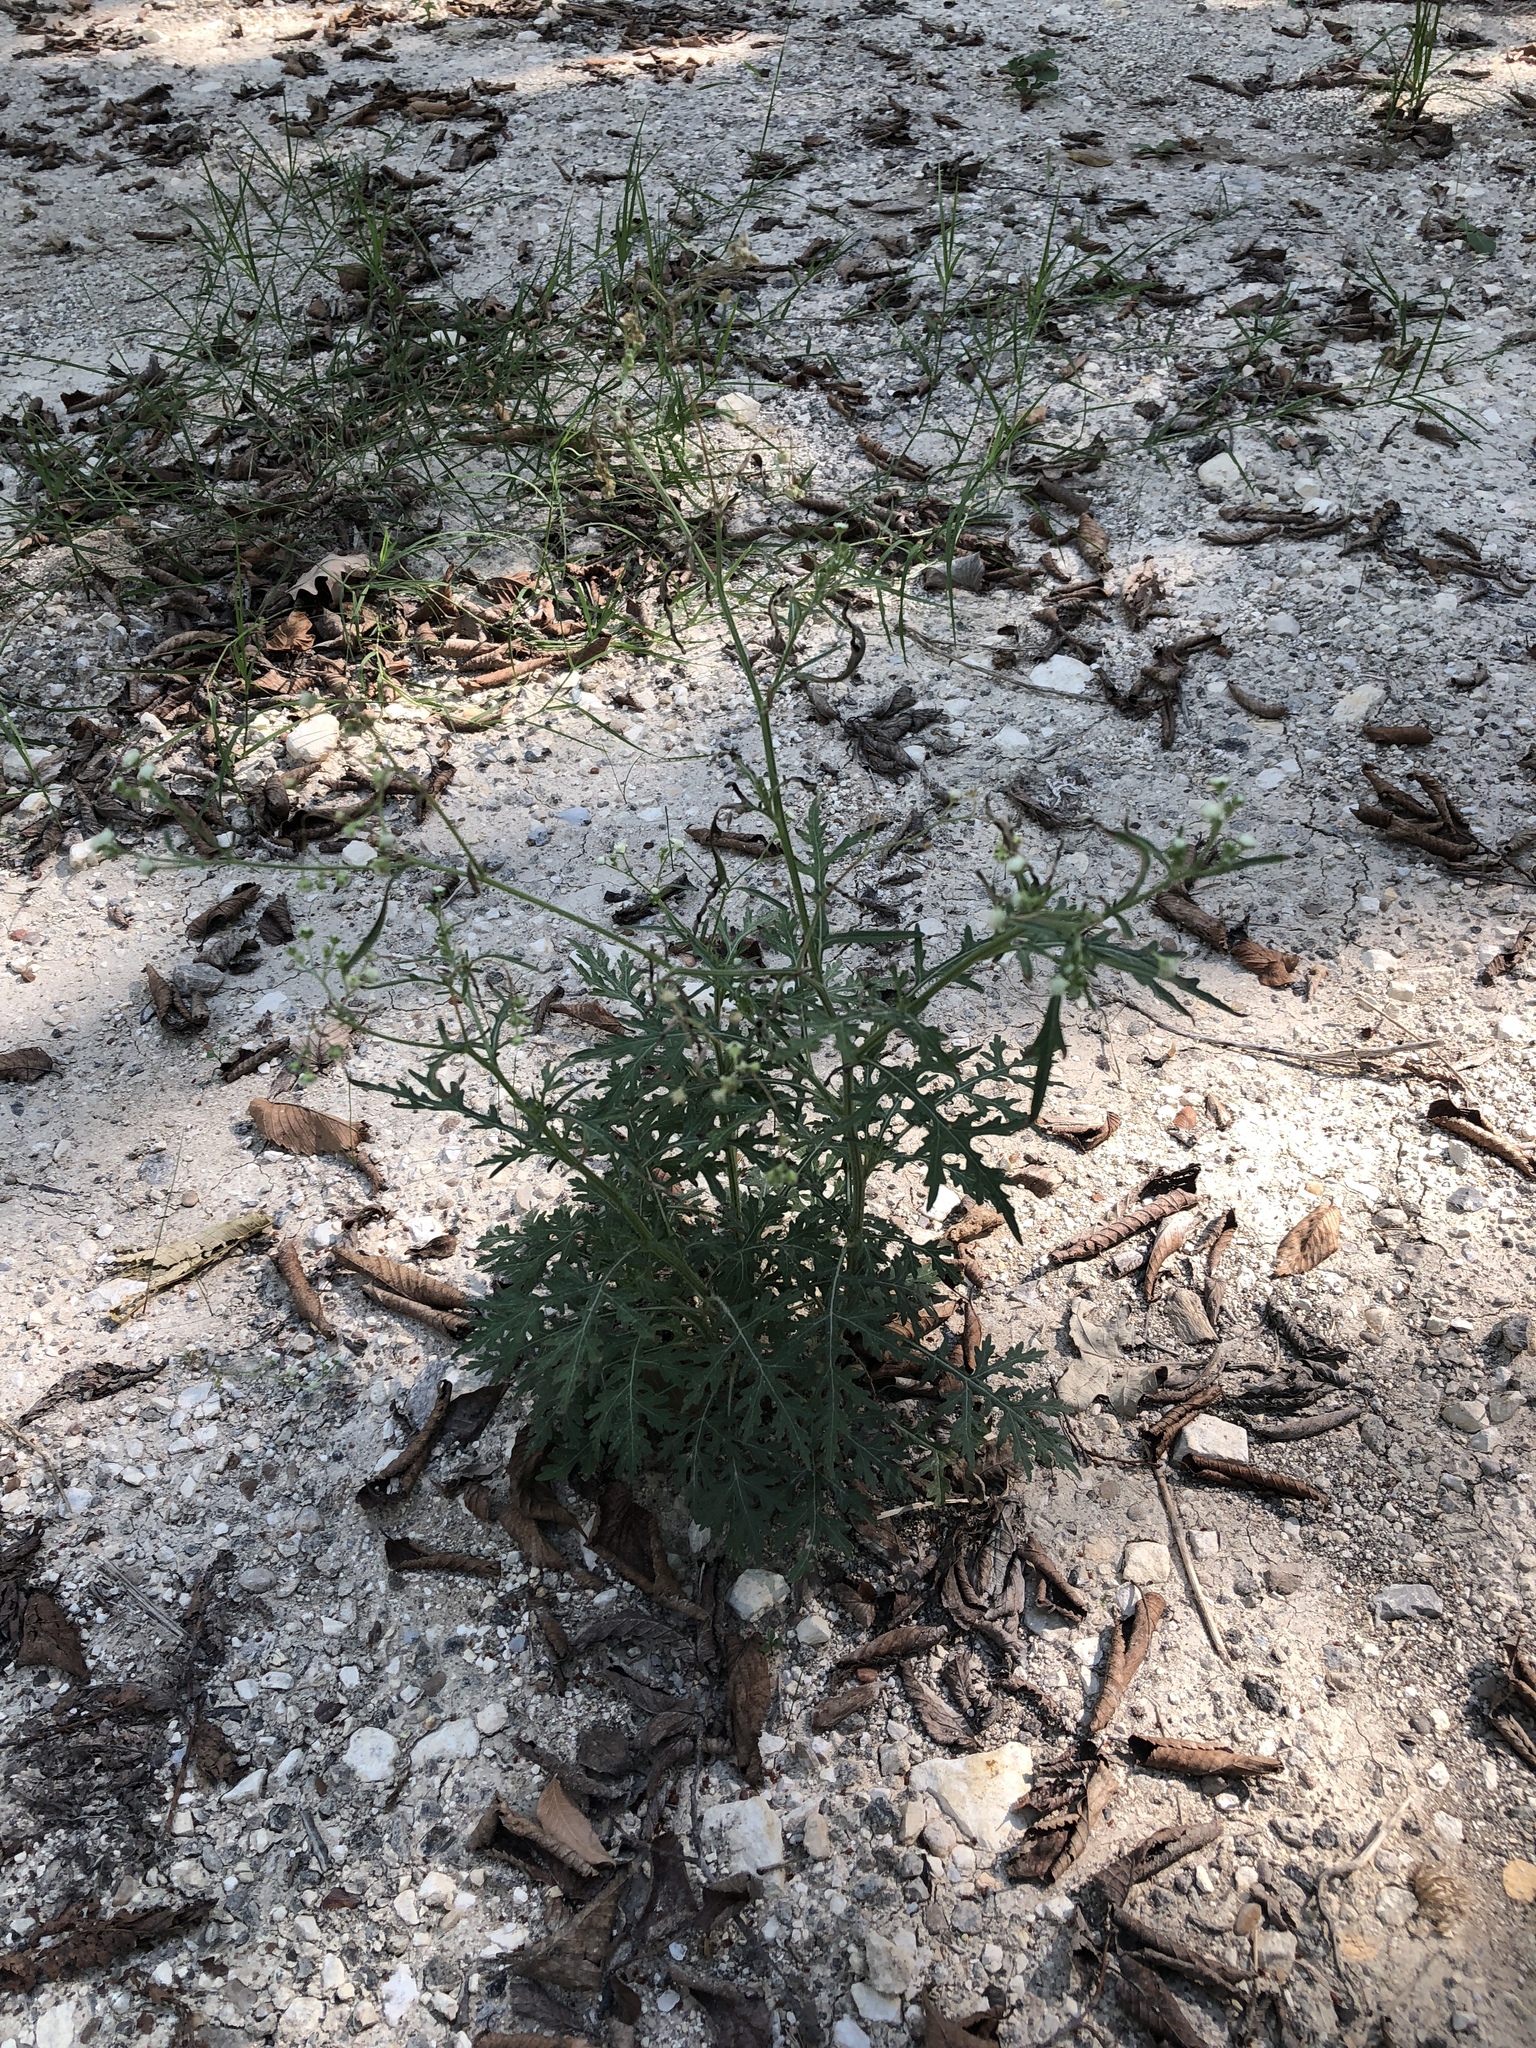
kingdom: Plantae
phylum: Tracheophyta
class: Magnoliopsida
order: Asterales
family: Asteraceae
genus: Parthenium
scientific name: Parthenium hysterophorus
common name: Santa maria feverfew
